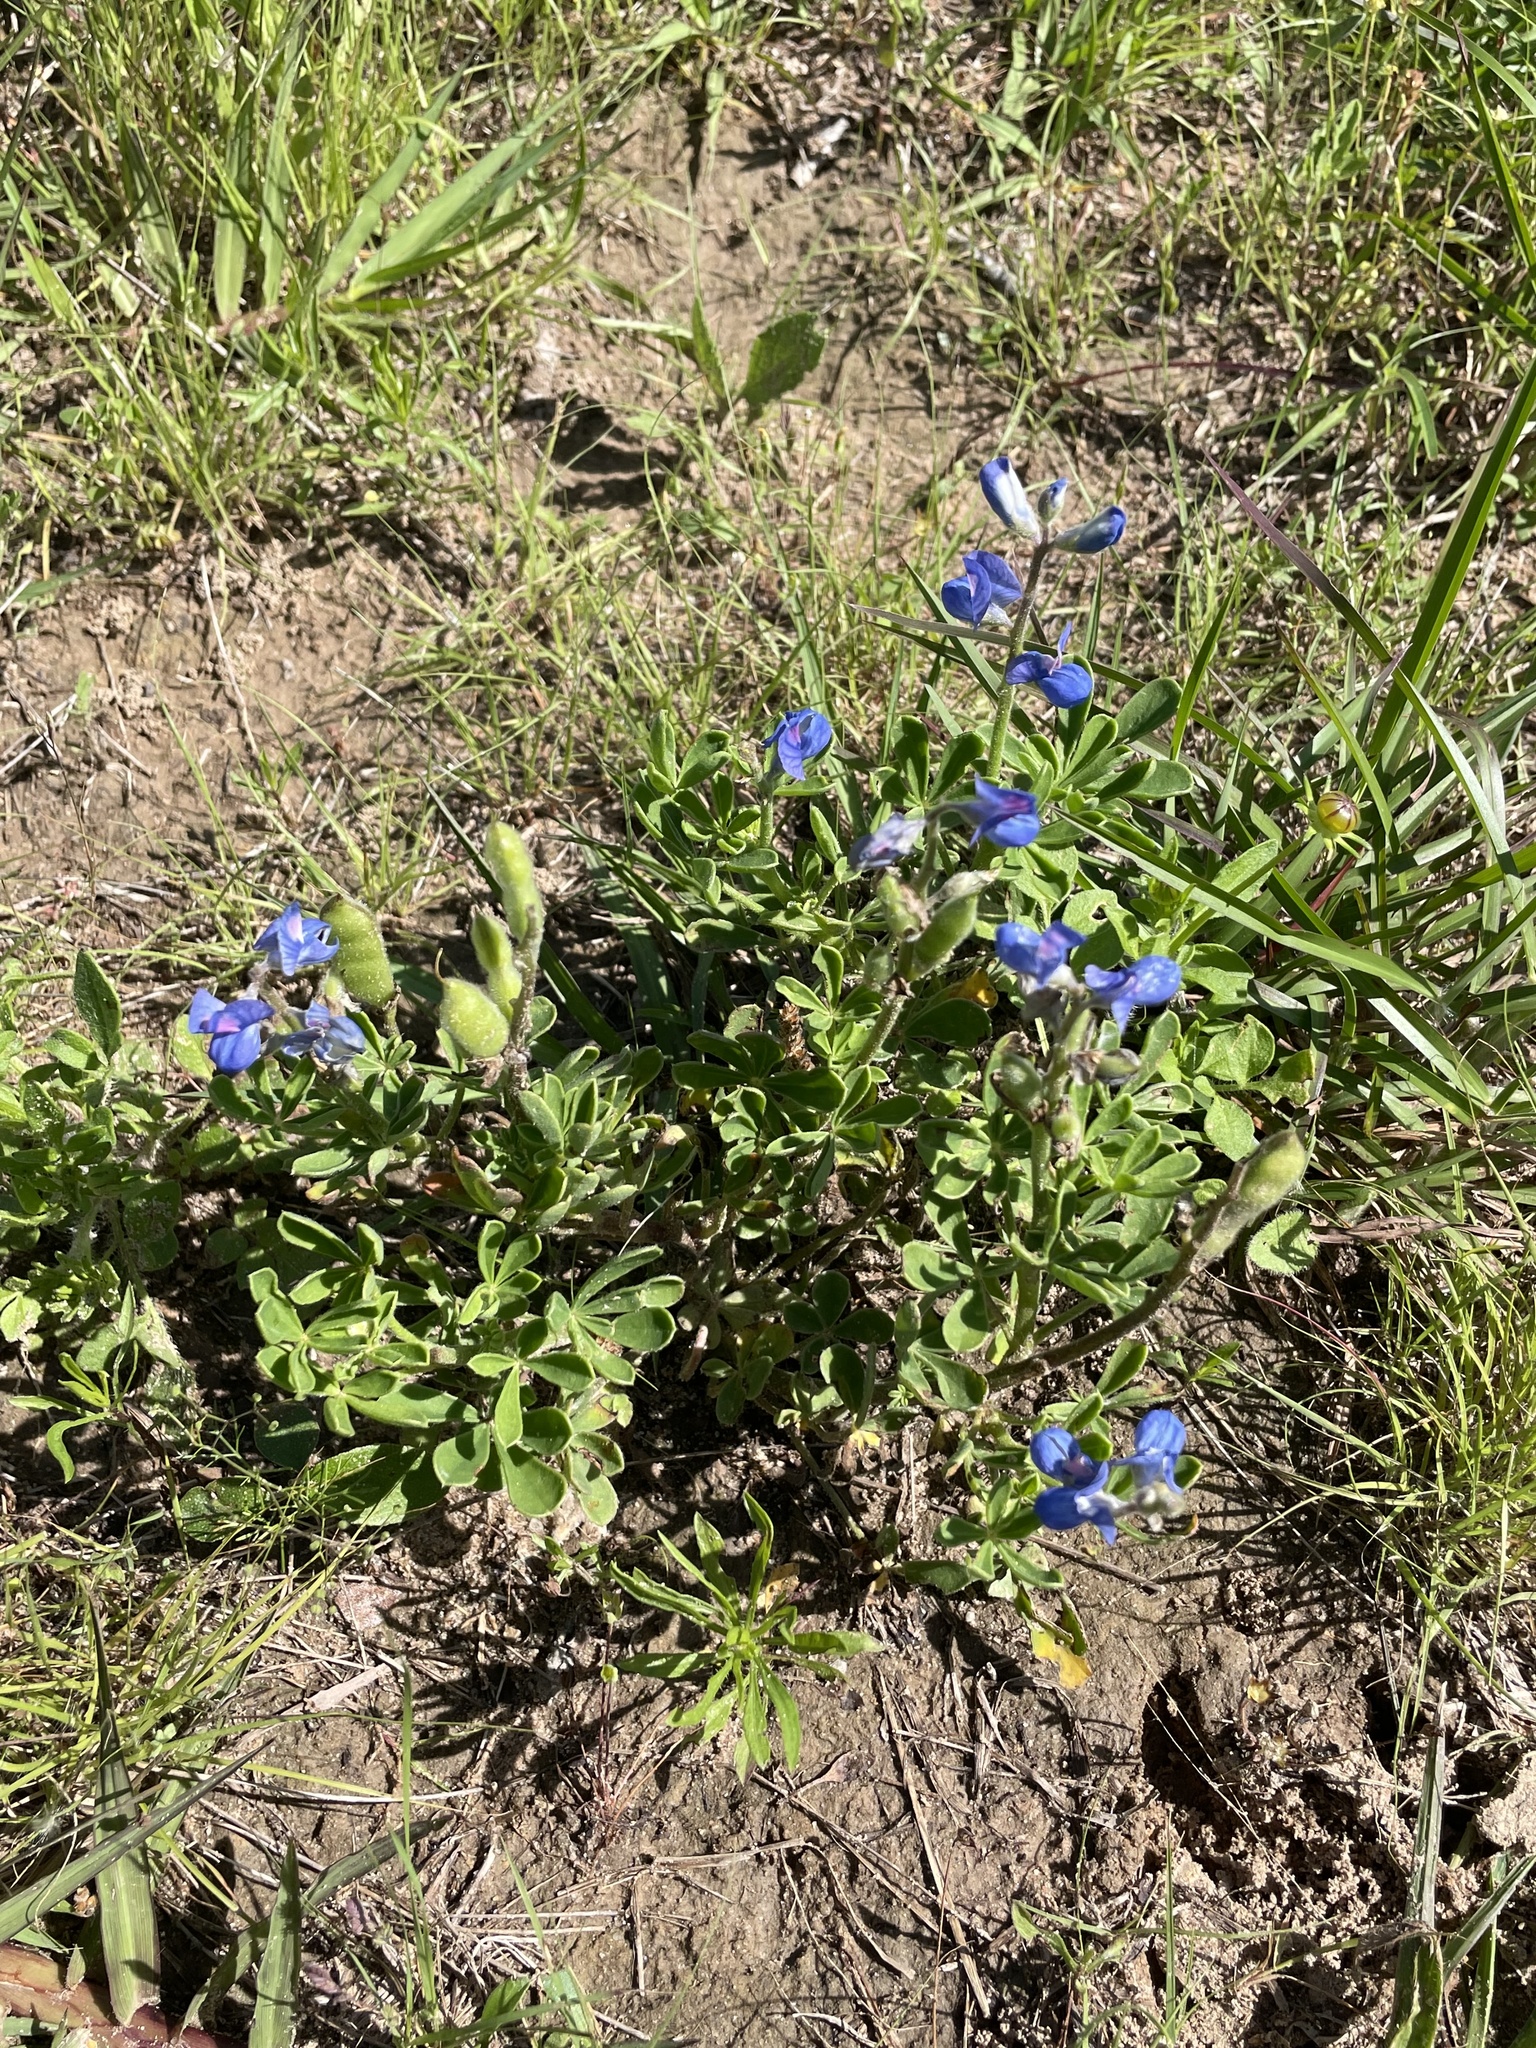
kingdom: Plantae
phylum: Tracheophyta
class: Magnoliopsida
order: Fabales
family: Fabaceae
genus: Lupinus
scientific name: Lupinus subcarnosus
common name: Texas bluebonnet
